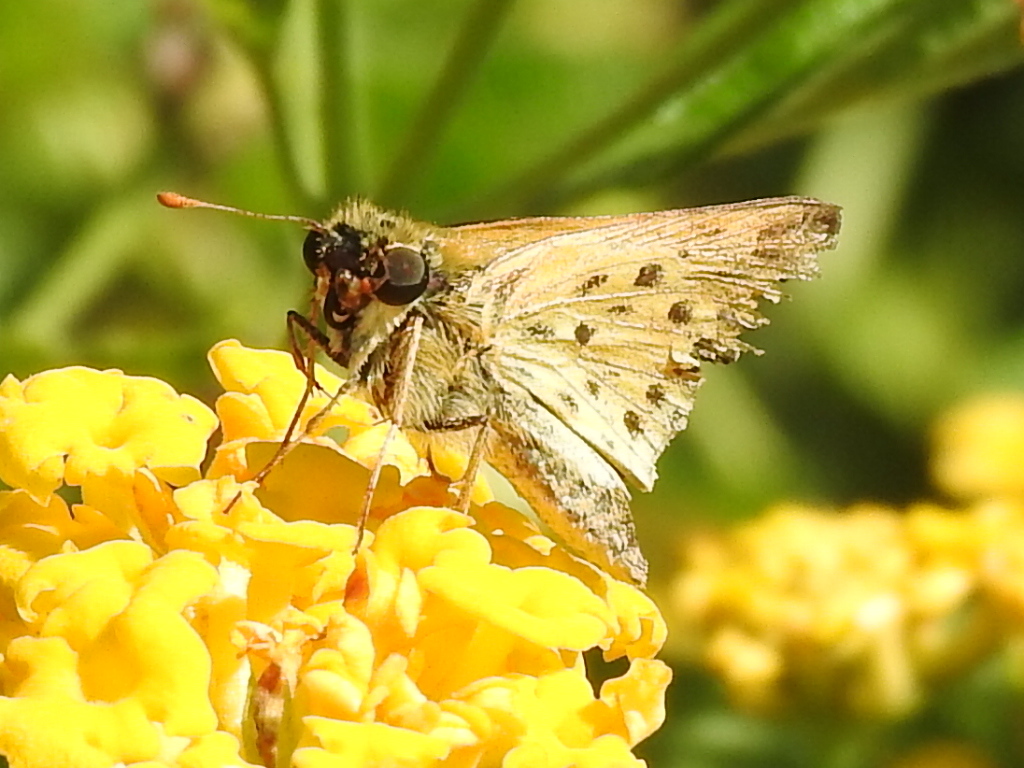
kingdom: Animalia
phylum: Arthropoda
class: Insecta
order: Lepidoptera
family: Hesperiidae
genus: Hylephila
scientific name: Hylephila phyleus
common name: Fiery skipper
